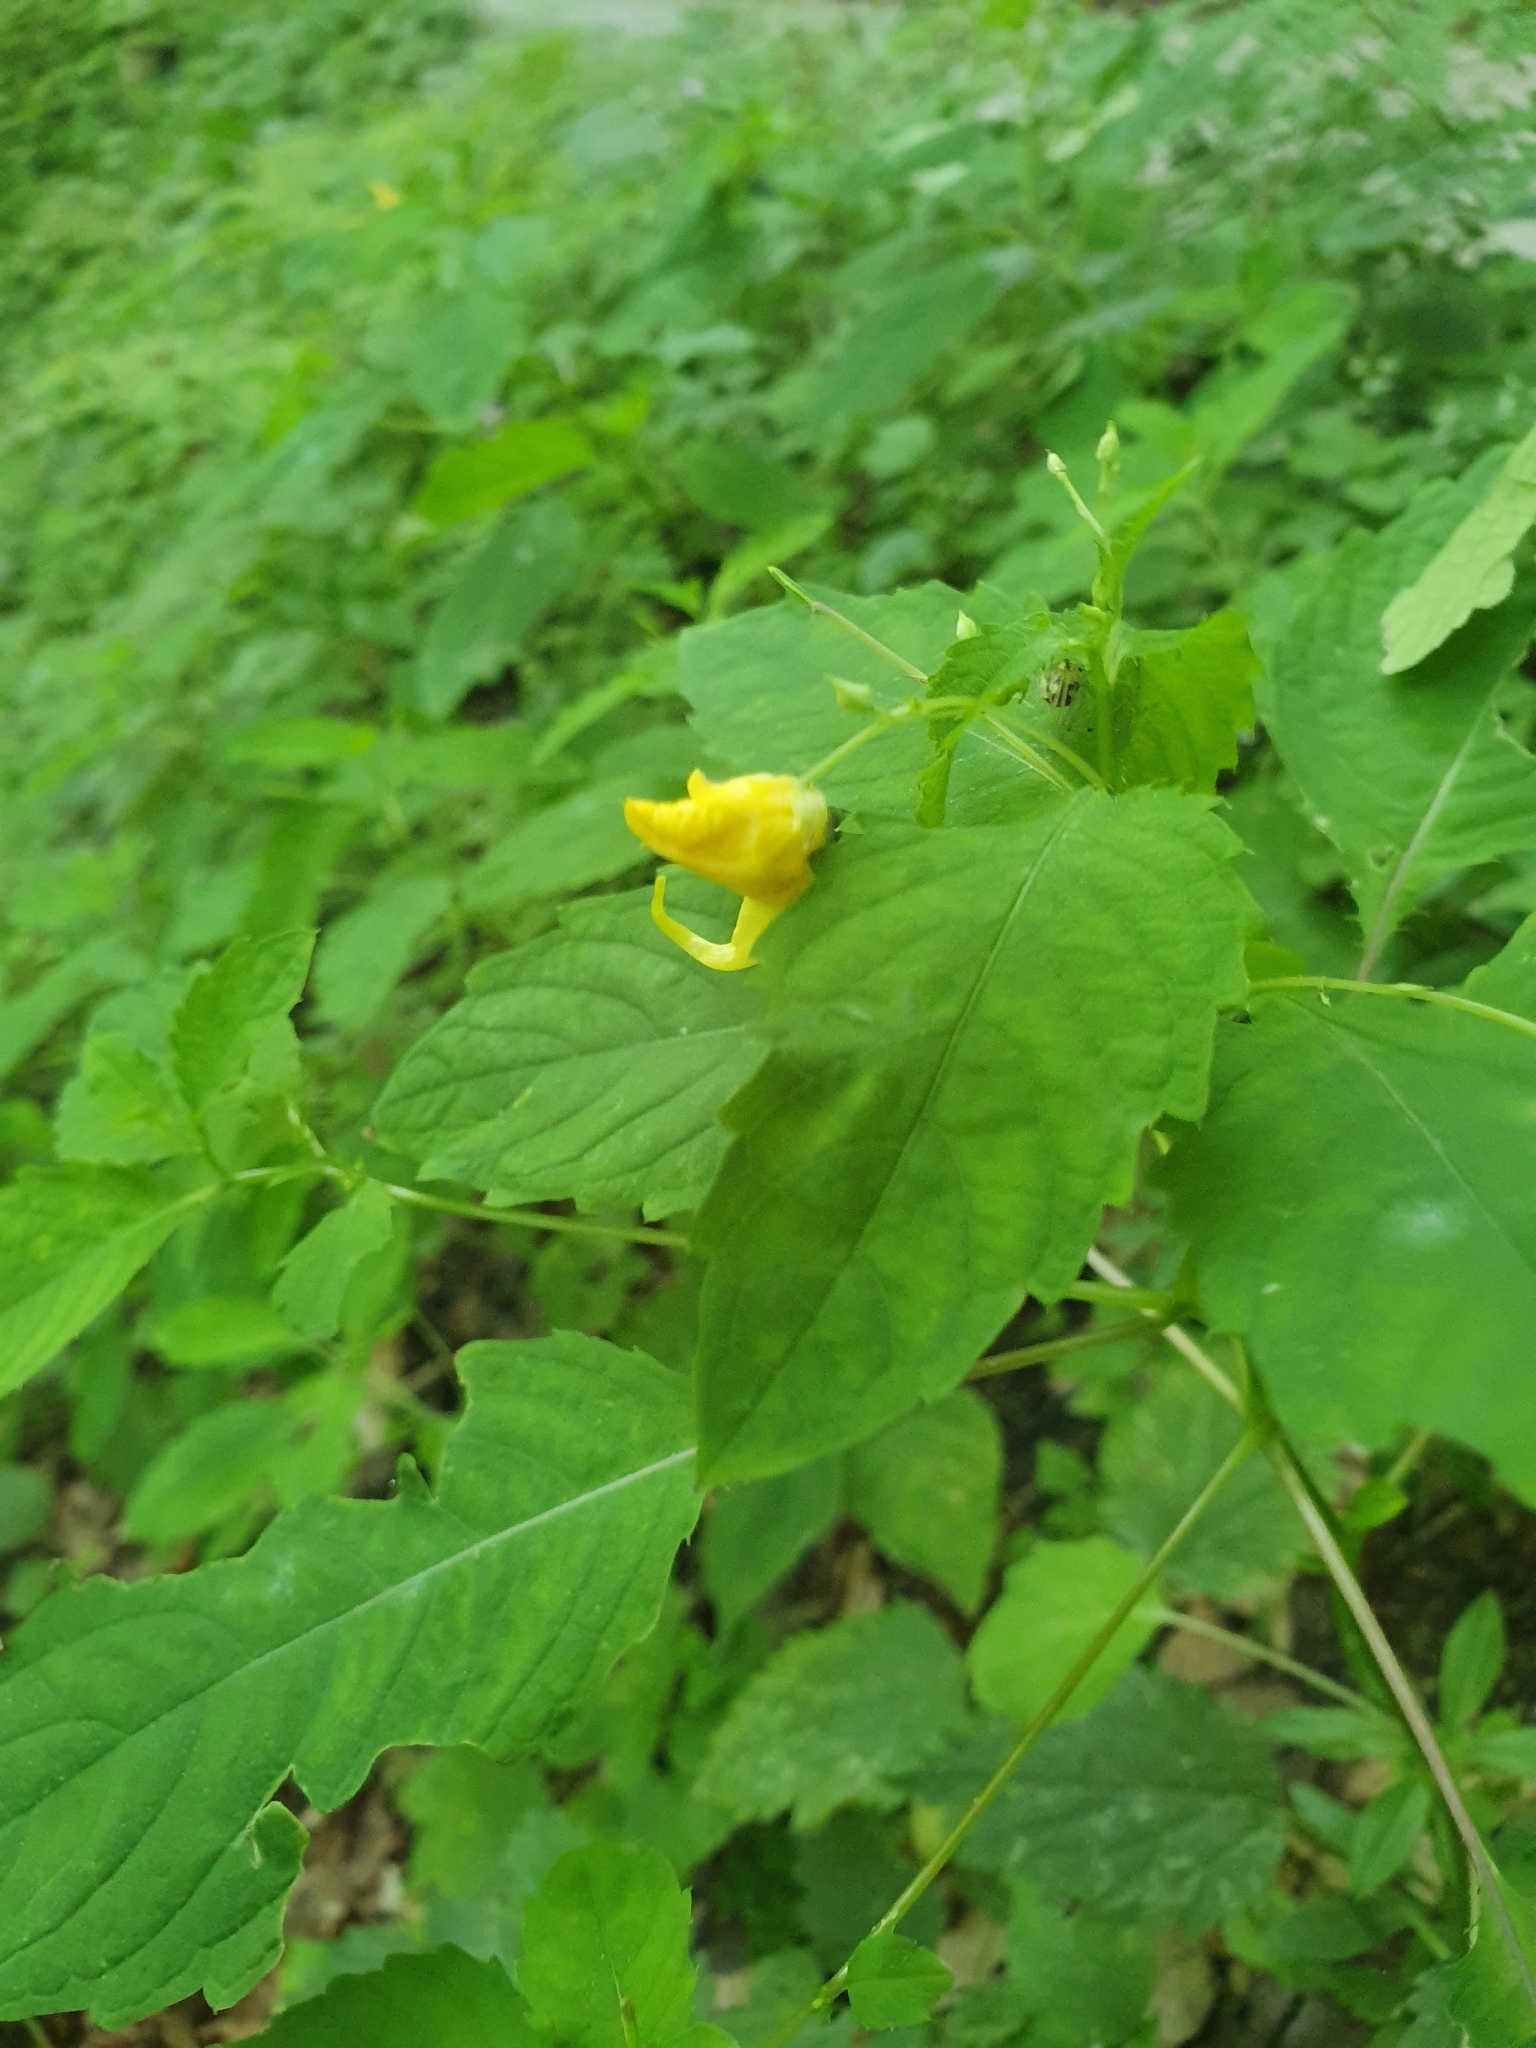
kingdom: Plantae
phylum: Tracheophyta
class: Magnoliopsida
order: Ericales
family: Balsaminaceae
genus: Impatiens
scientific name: Impatiens noli-tangere
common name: Touch-me-not balsam
